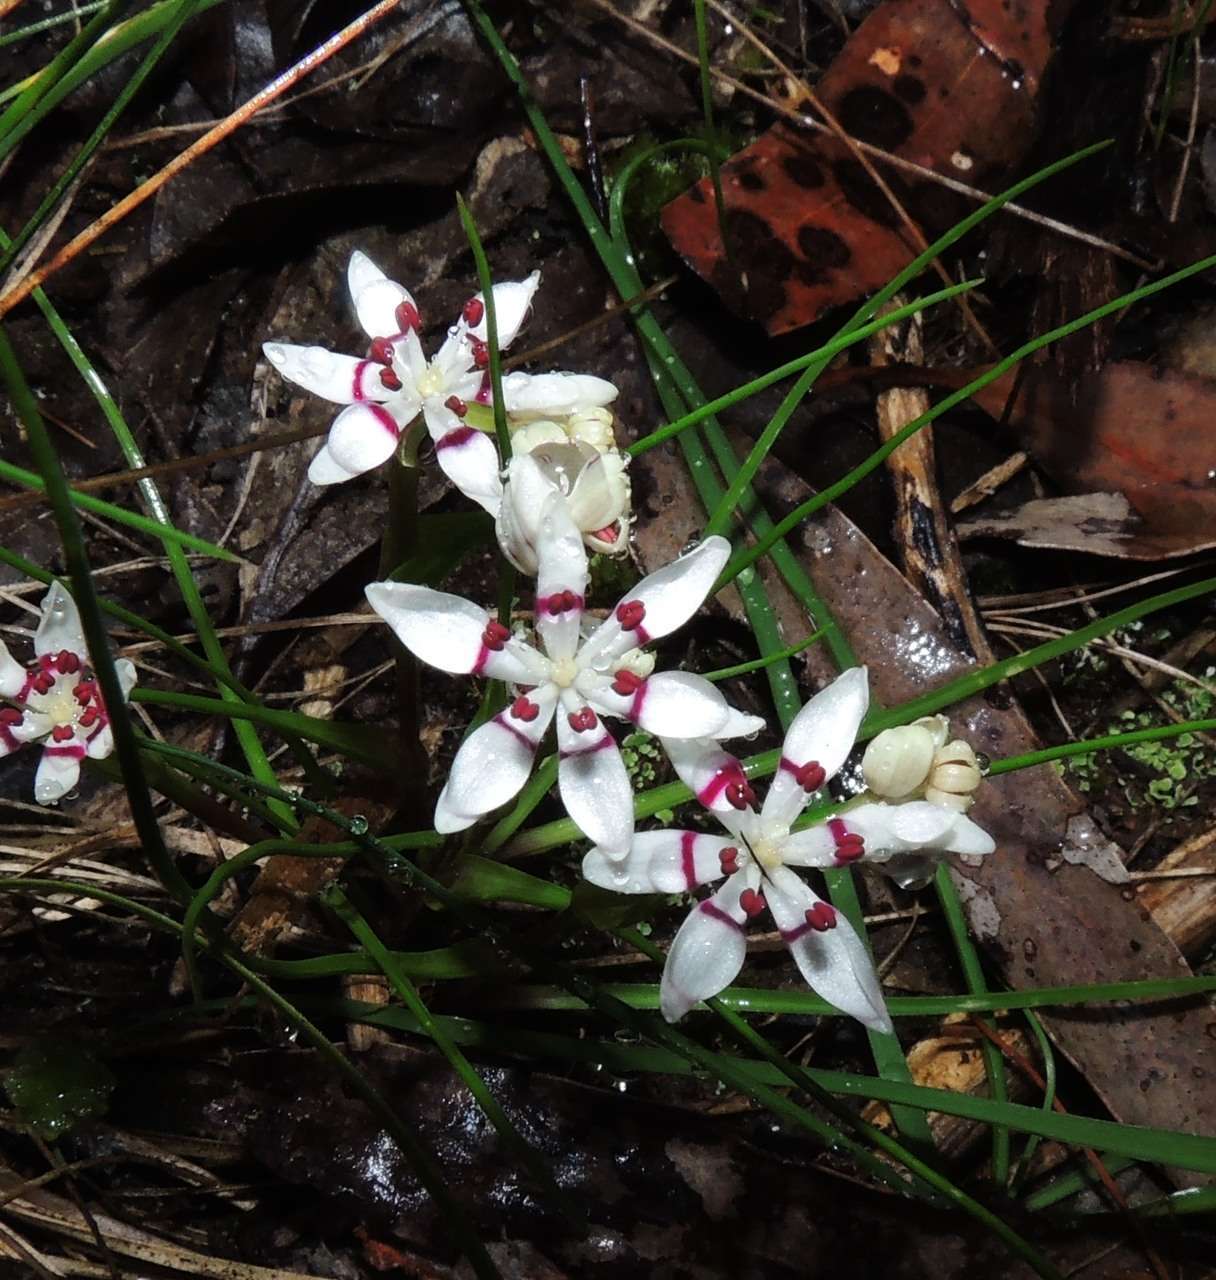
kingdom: Plantae
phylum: Tracheophyta
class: Liliopsida
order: Liliales
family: Colchicaceae
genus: Wurmbea
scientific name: Wurmbea dioica
